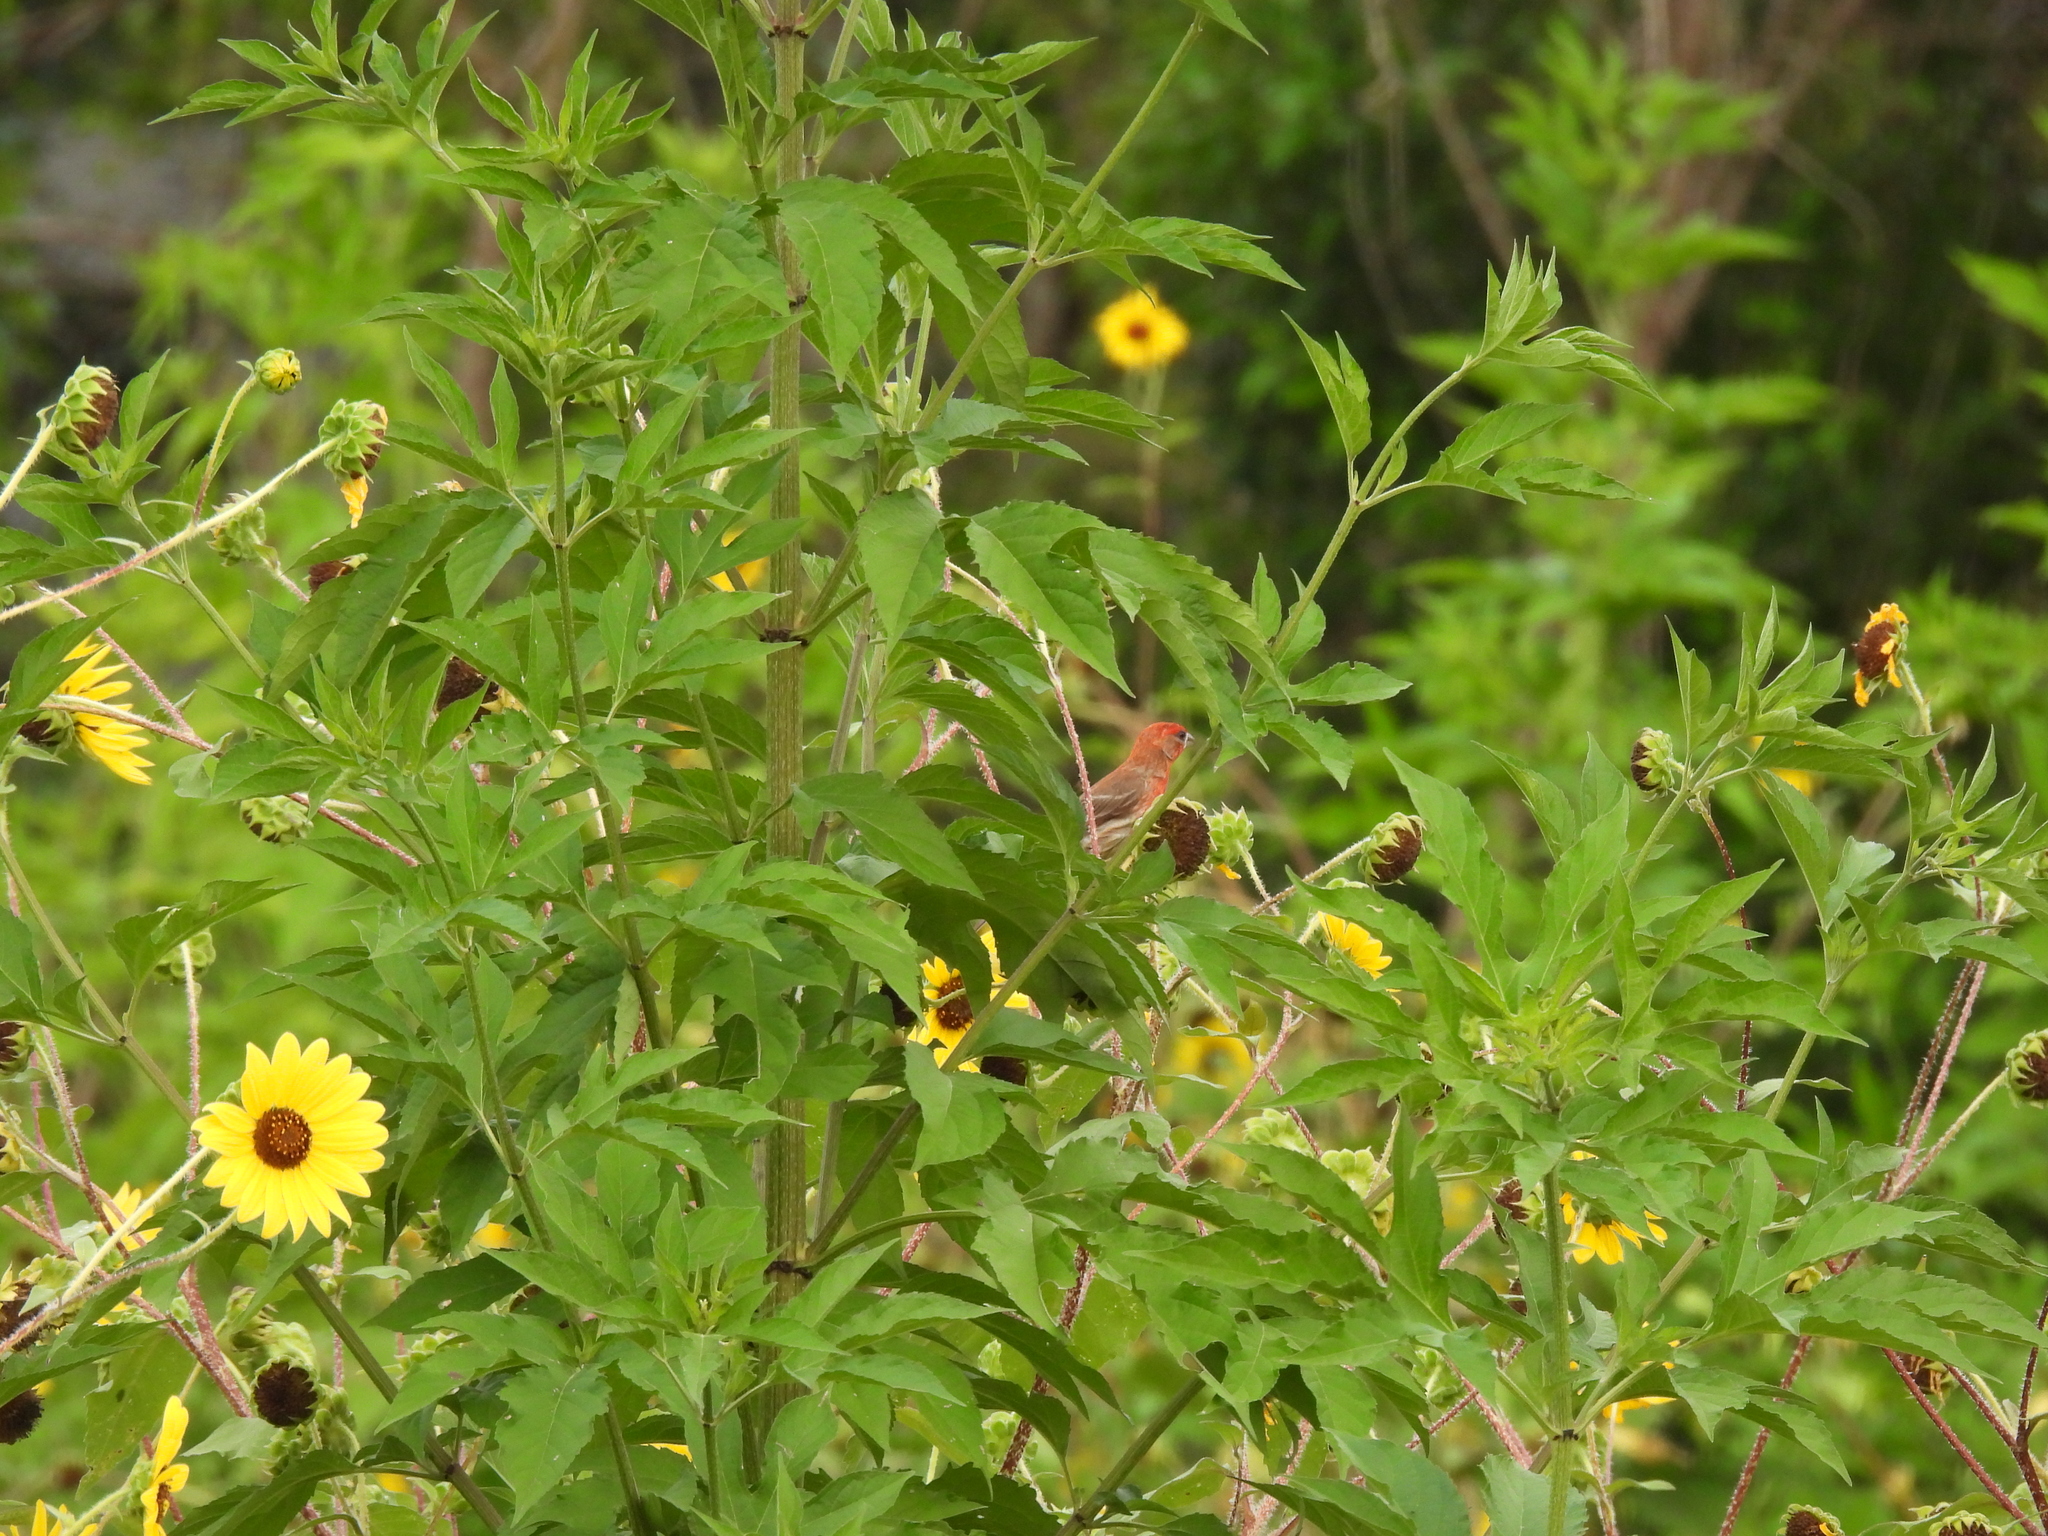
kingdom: Animalia
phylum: Chordata
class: Aves
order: Passeriformes
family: Fringillidae
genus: Haemorhous
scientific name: Haemorhous mexicanus
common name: House finch
